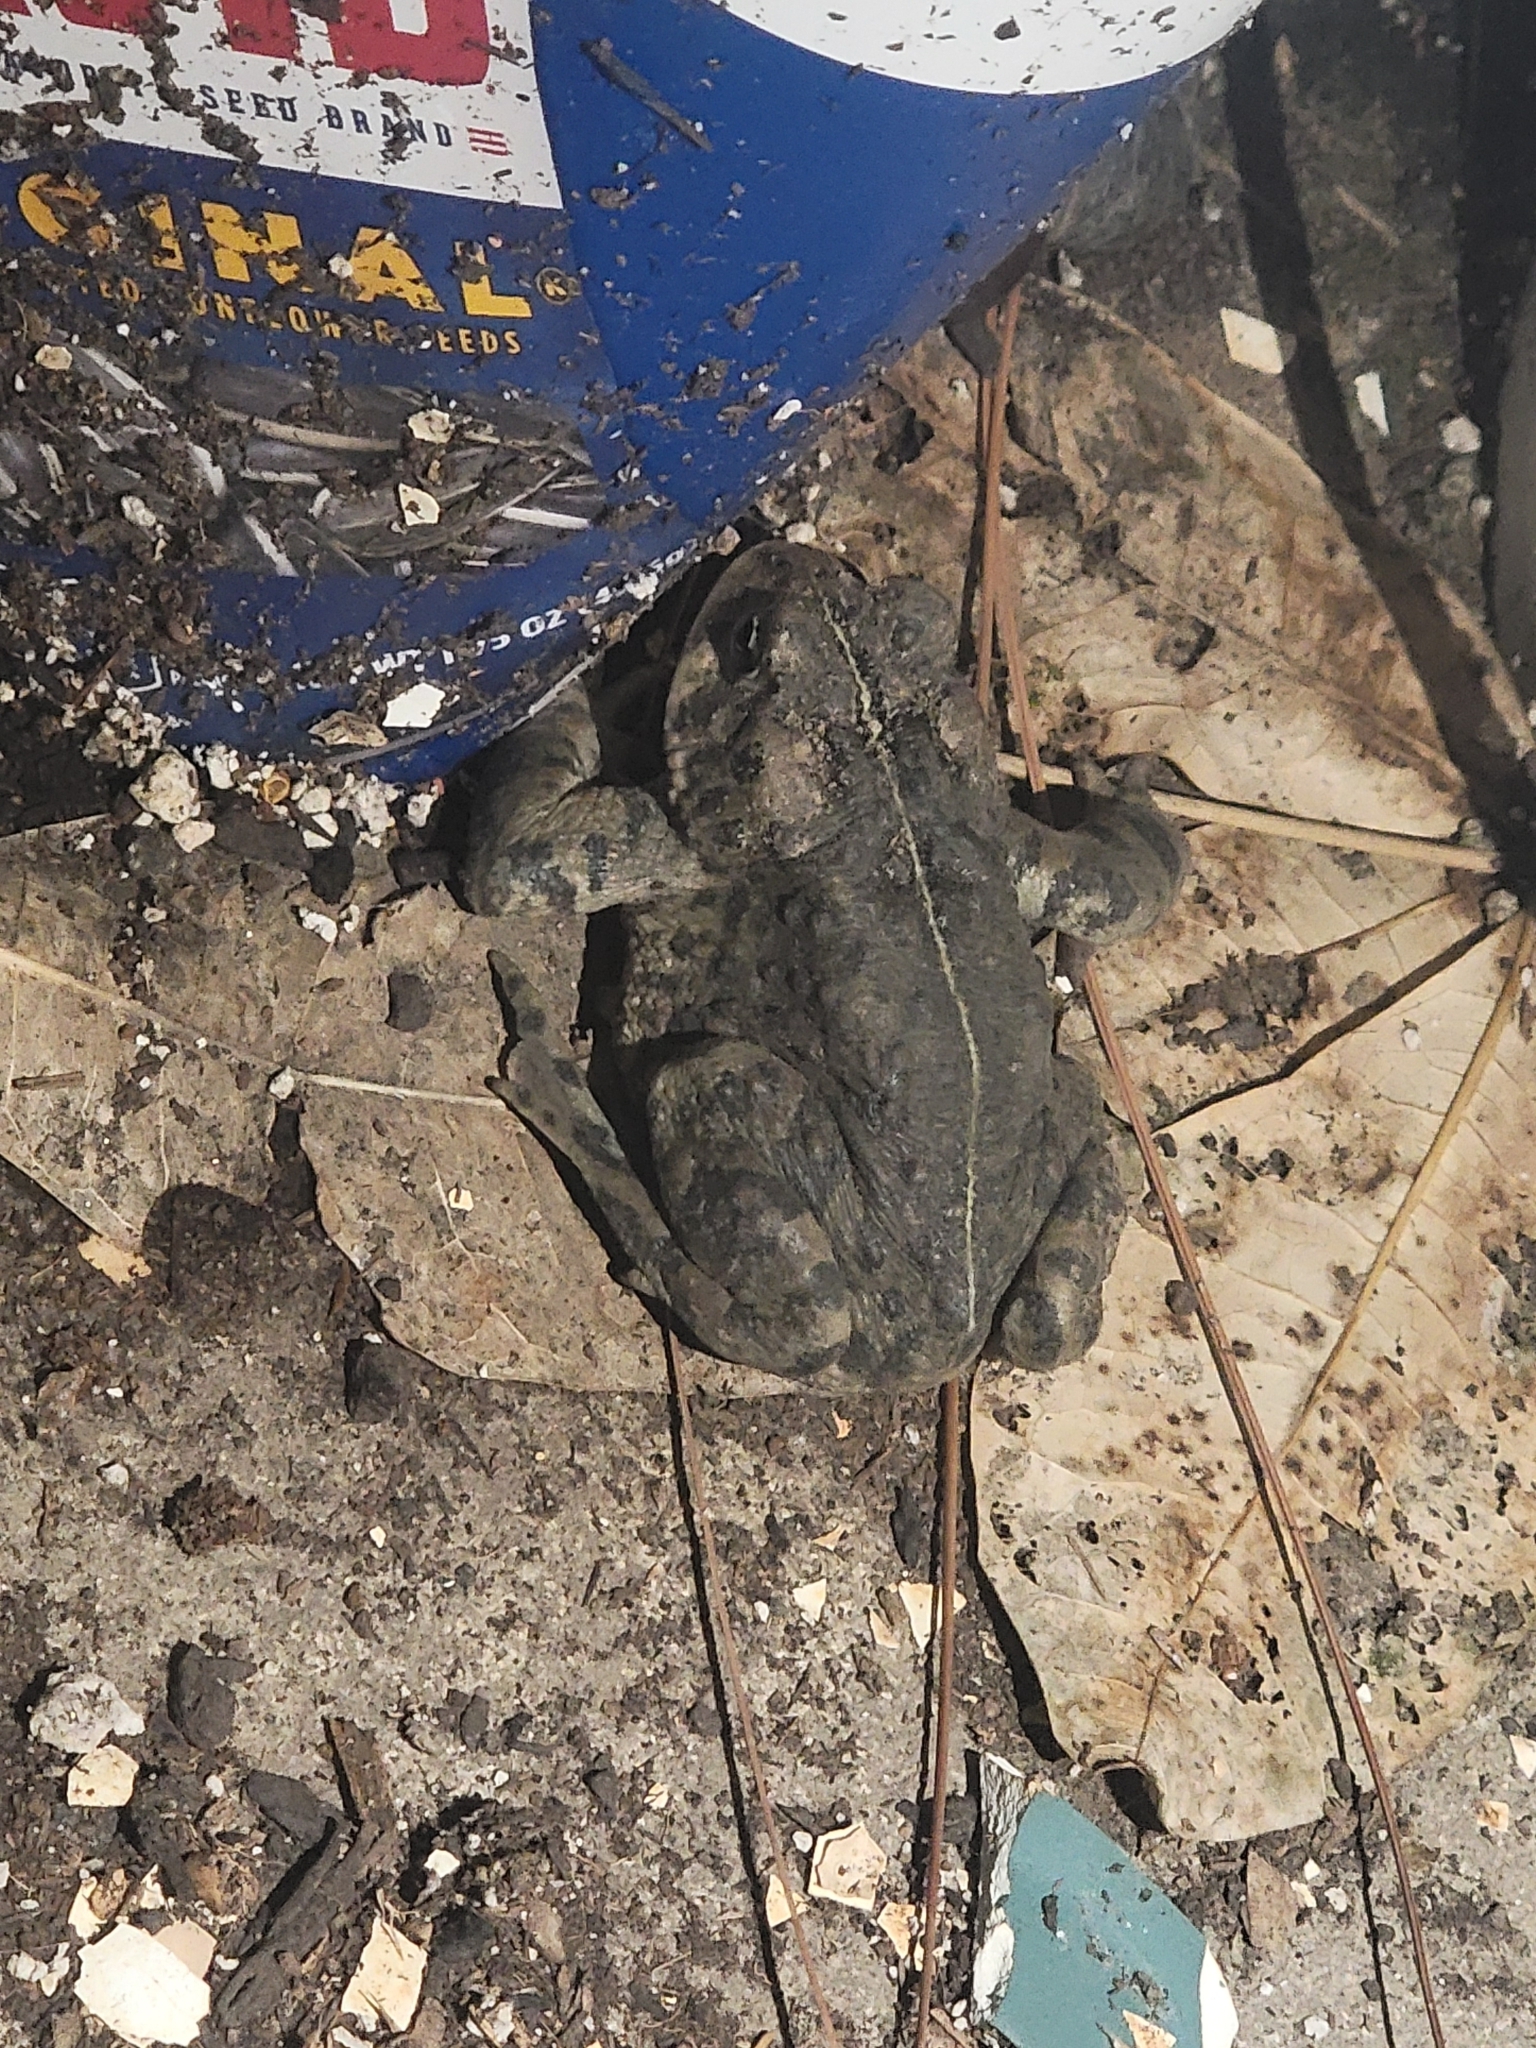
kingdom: Animalia
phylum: Chordata
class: Amphibia
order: Anura
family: Bufonidae
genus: Anaxyrus
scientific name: Anaxyrus boreas
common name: Western toad
